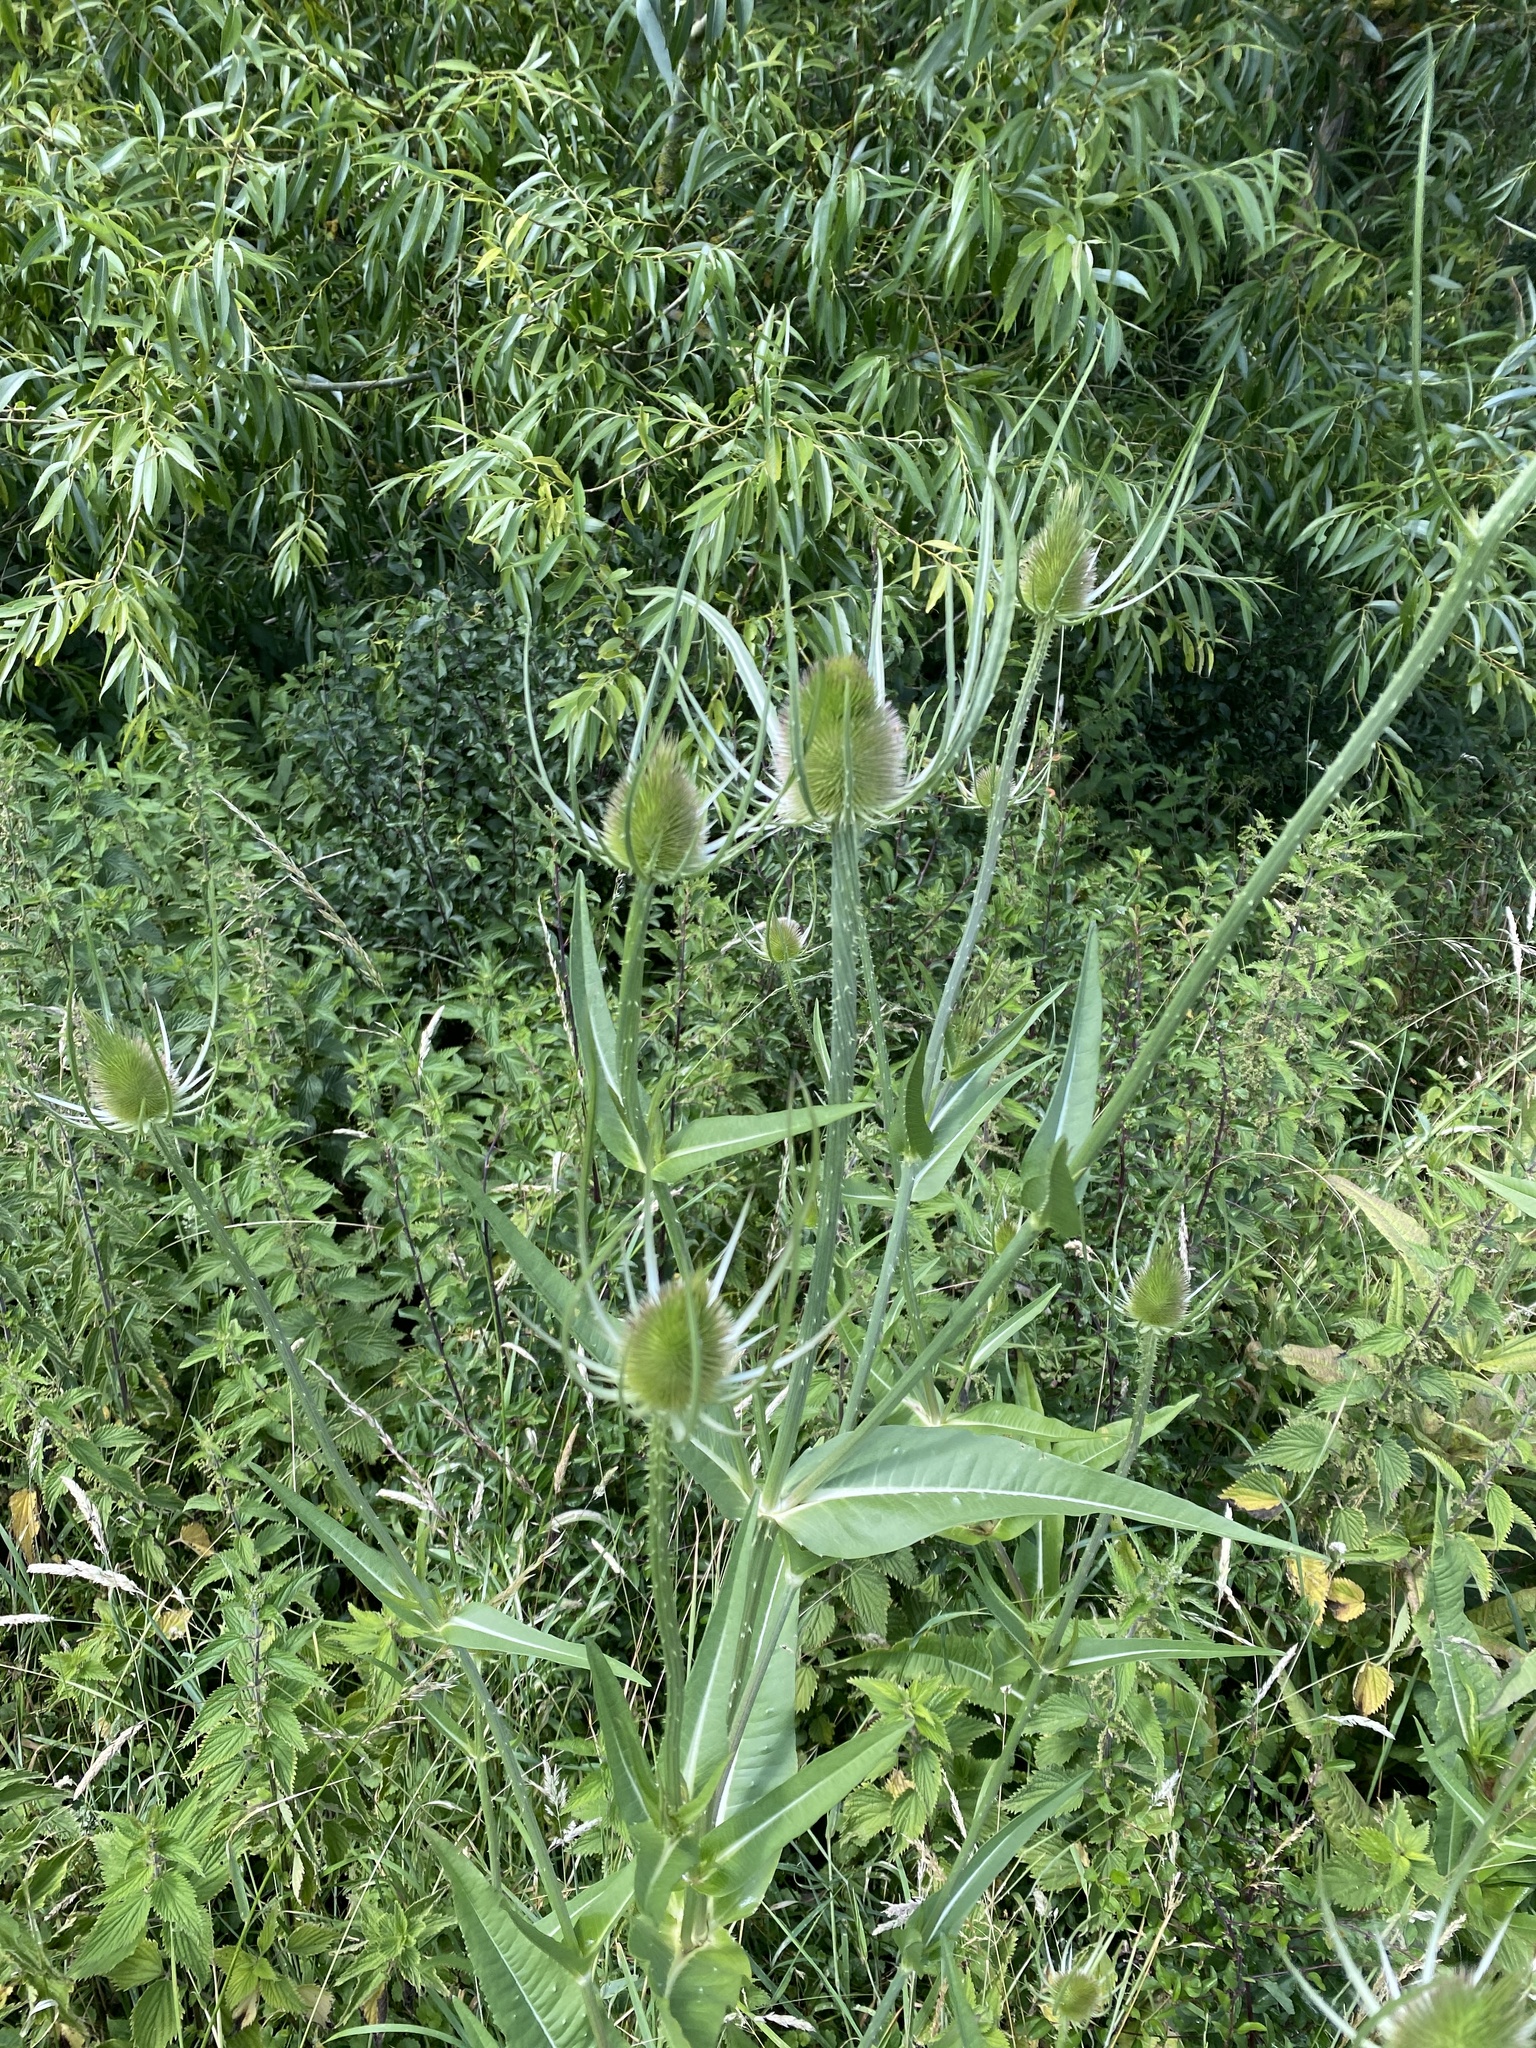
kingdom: Plantae
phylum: Tracheophyta
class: Magnoliopsida
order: Dipsacales
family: Caprifoliaceae
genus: Dipsacus
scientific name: Dipsacus fullonum
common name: Teasel
